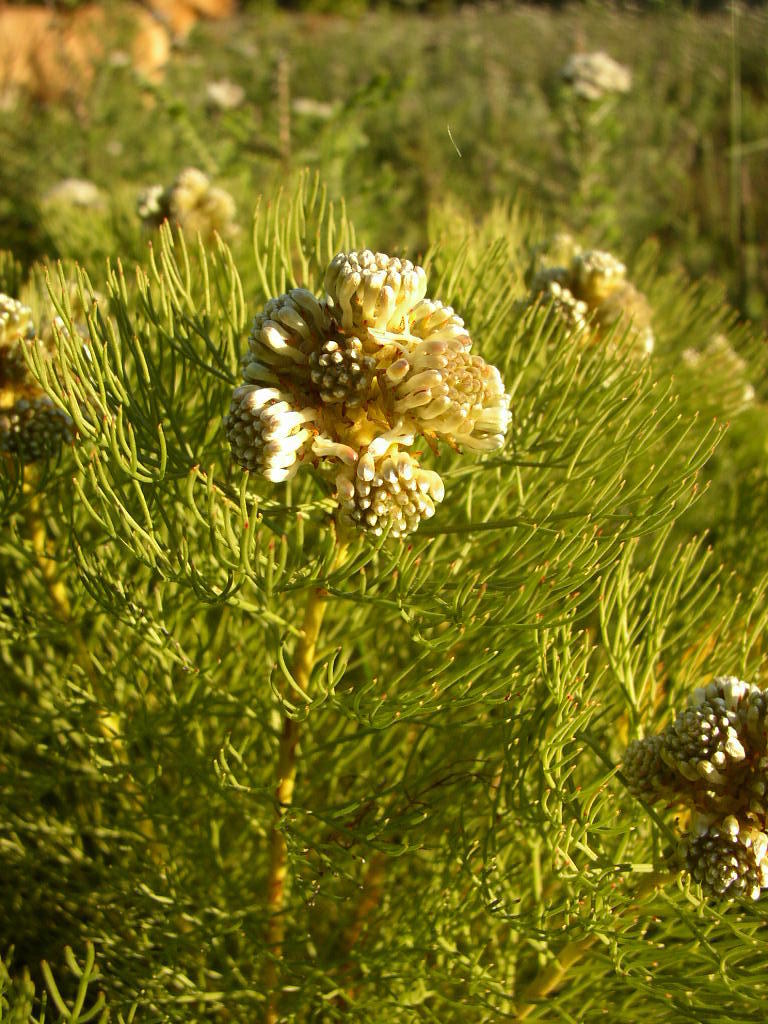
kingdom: Plantae
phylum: Tracheophyta
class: Magnoliopsida
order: Proteales
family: Proteaceae
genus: Serruria
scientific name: Serruria glomerata
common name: Cluster spiderhead
